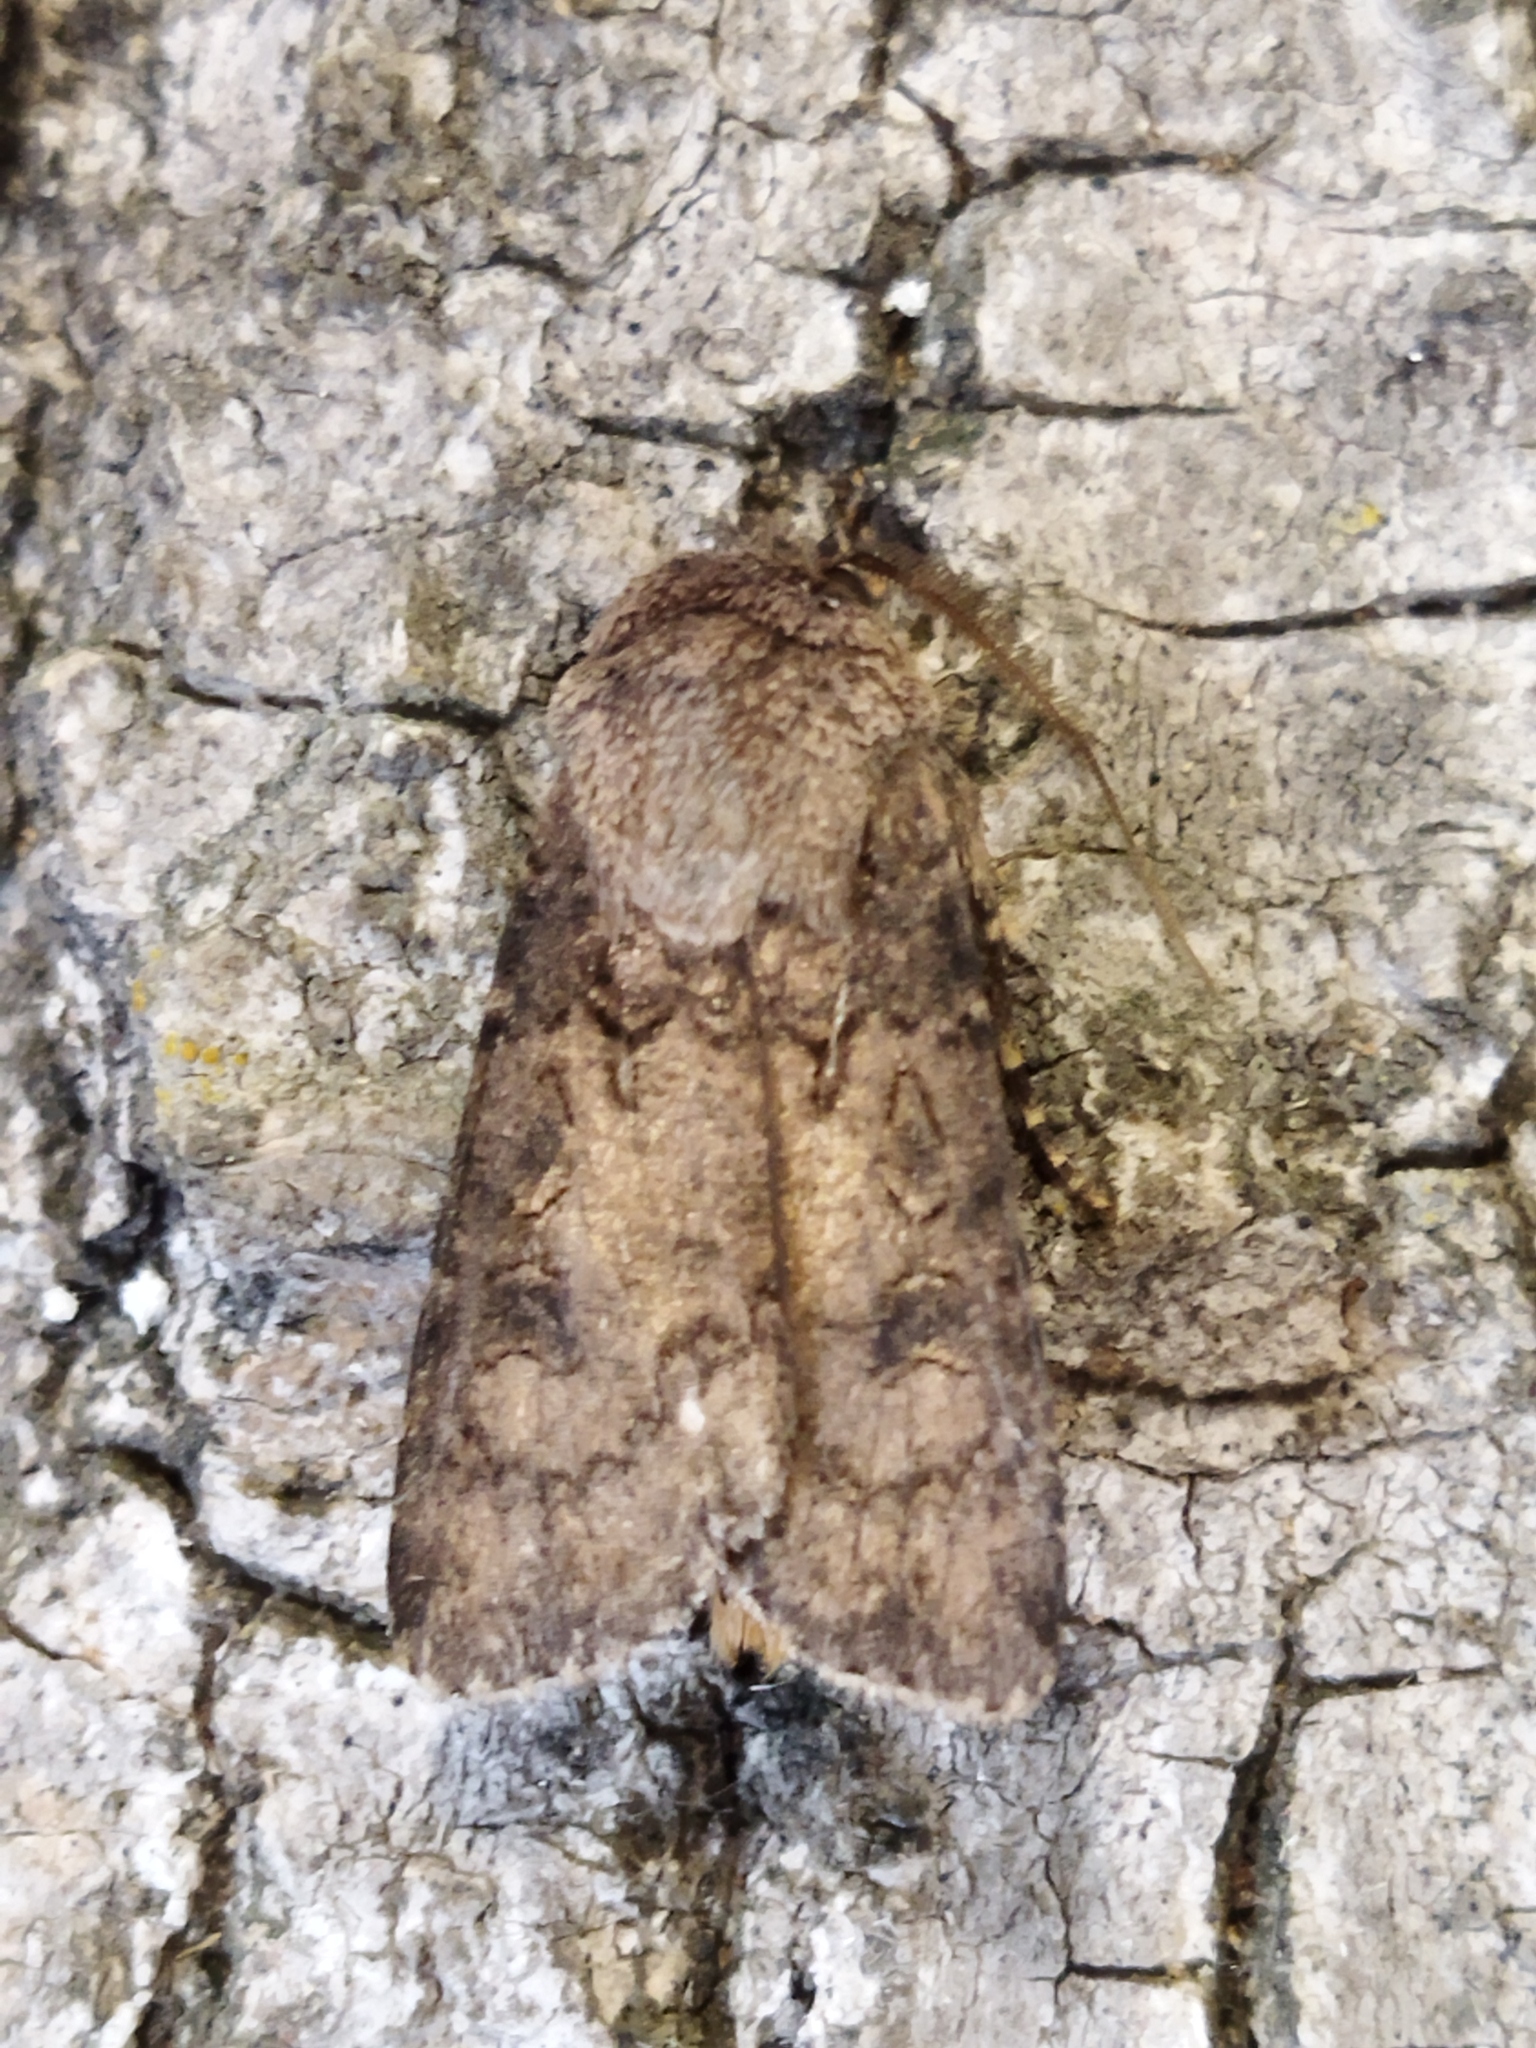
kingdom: Animalia
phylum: Arthropoda
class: Insecta
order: Lepidoptera
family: Noctuidae
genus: Agrotis
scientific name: Agrotis segetum
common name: Turnip moth
